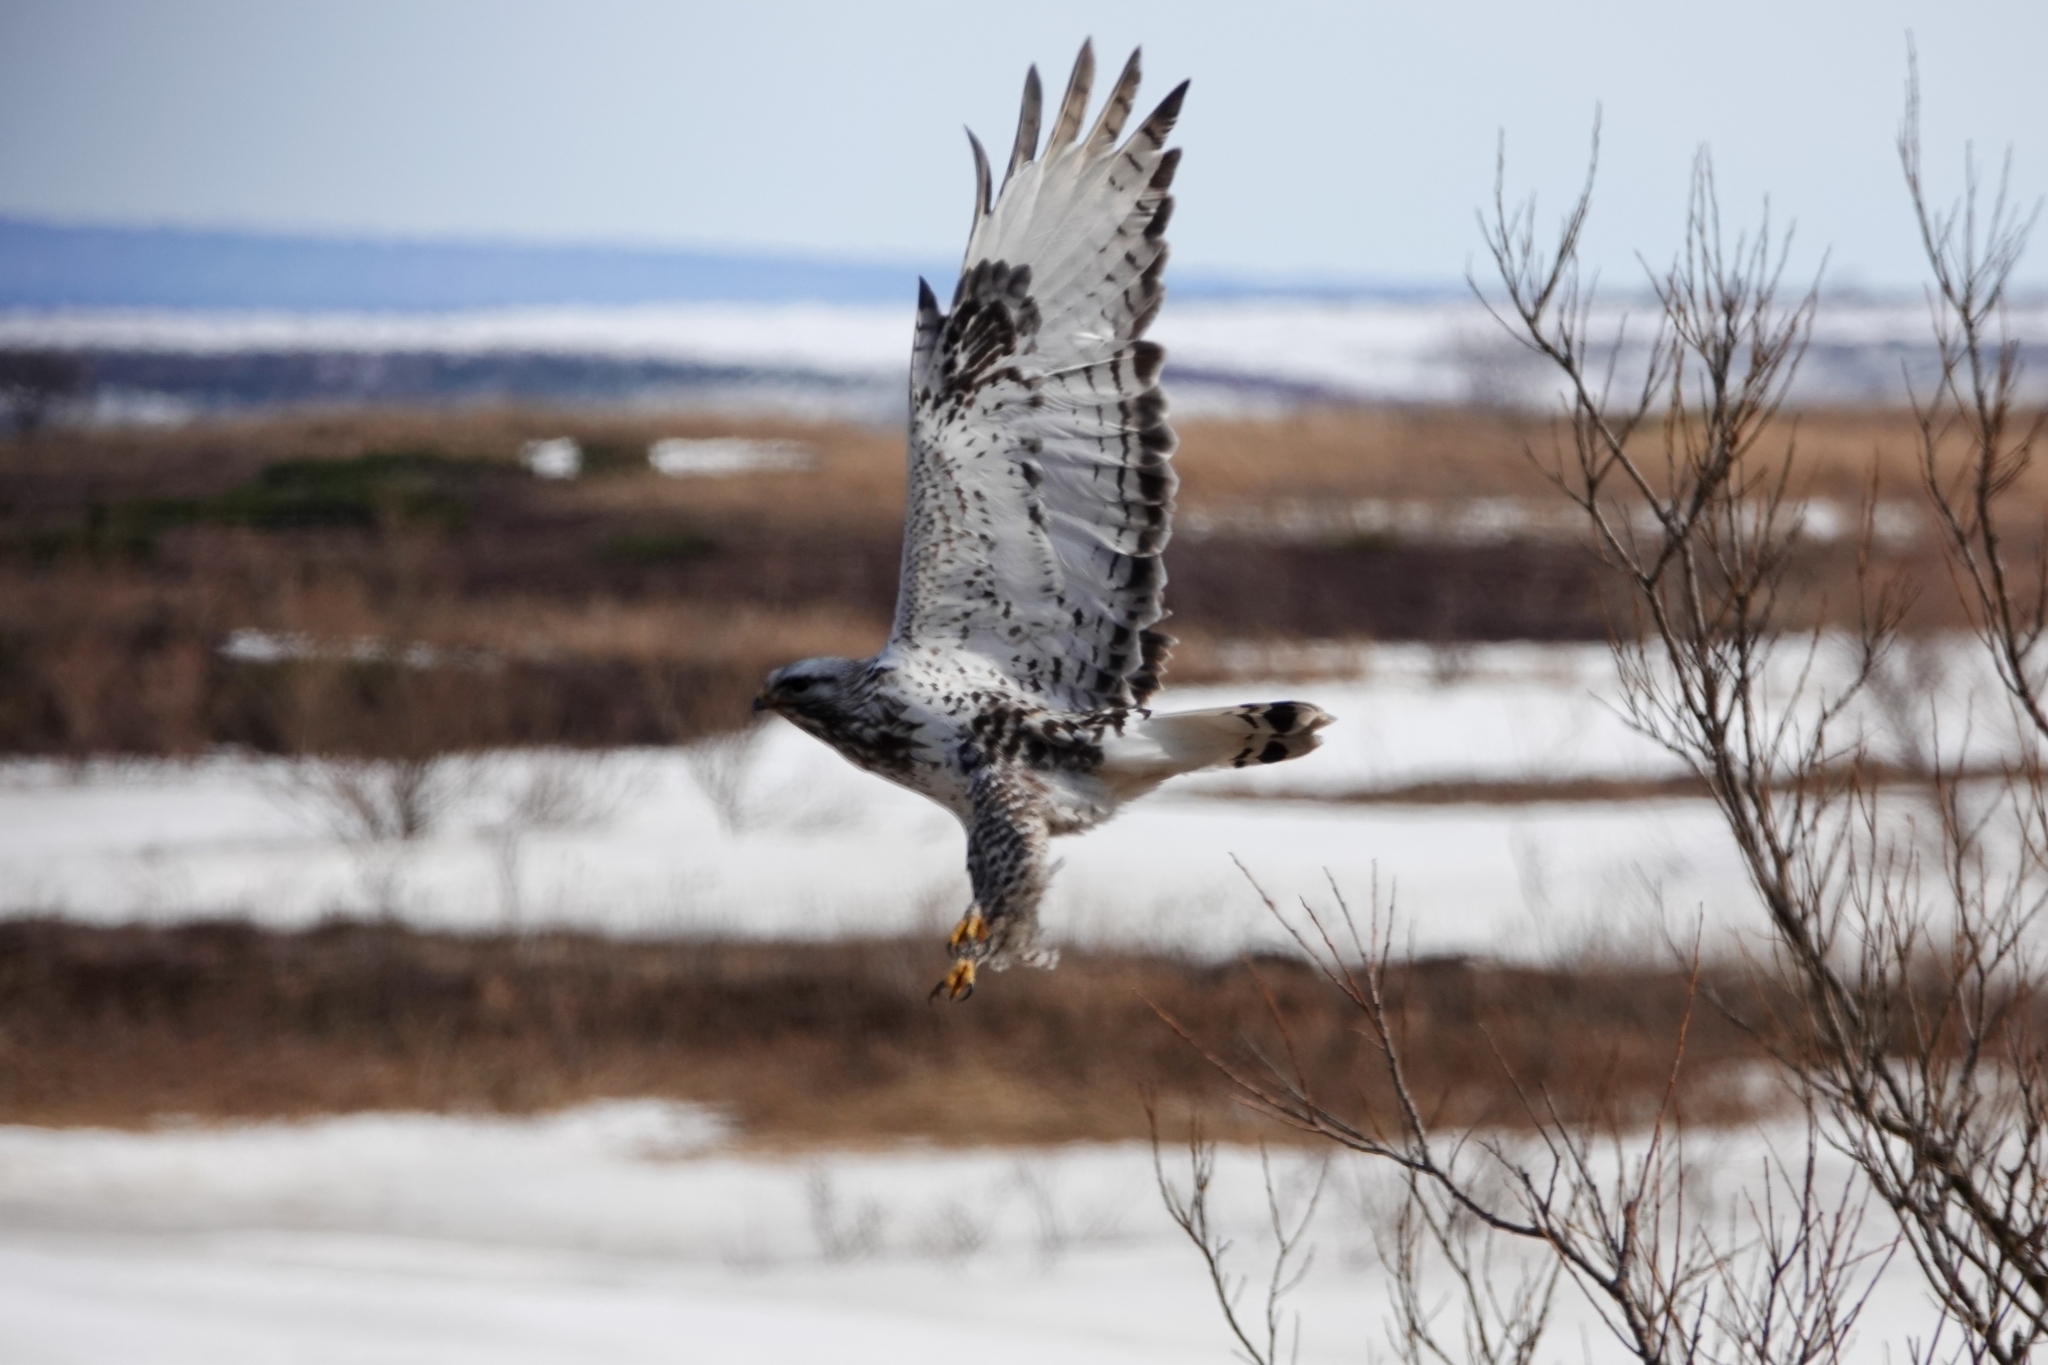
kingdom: Animalia
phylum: Chordata
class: Aves
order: Accipitriformes
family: Accipitridae
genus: Buteo
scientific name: Buteo lagopus
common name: Rough-legged buzzard
